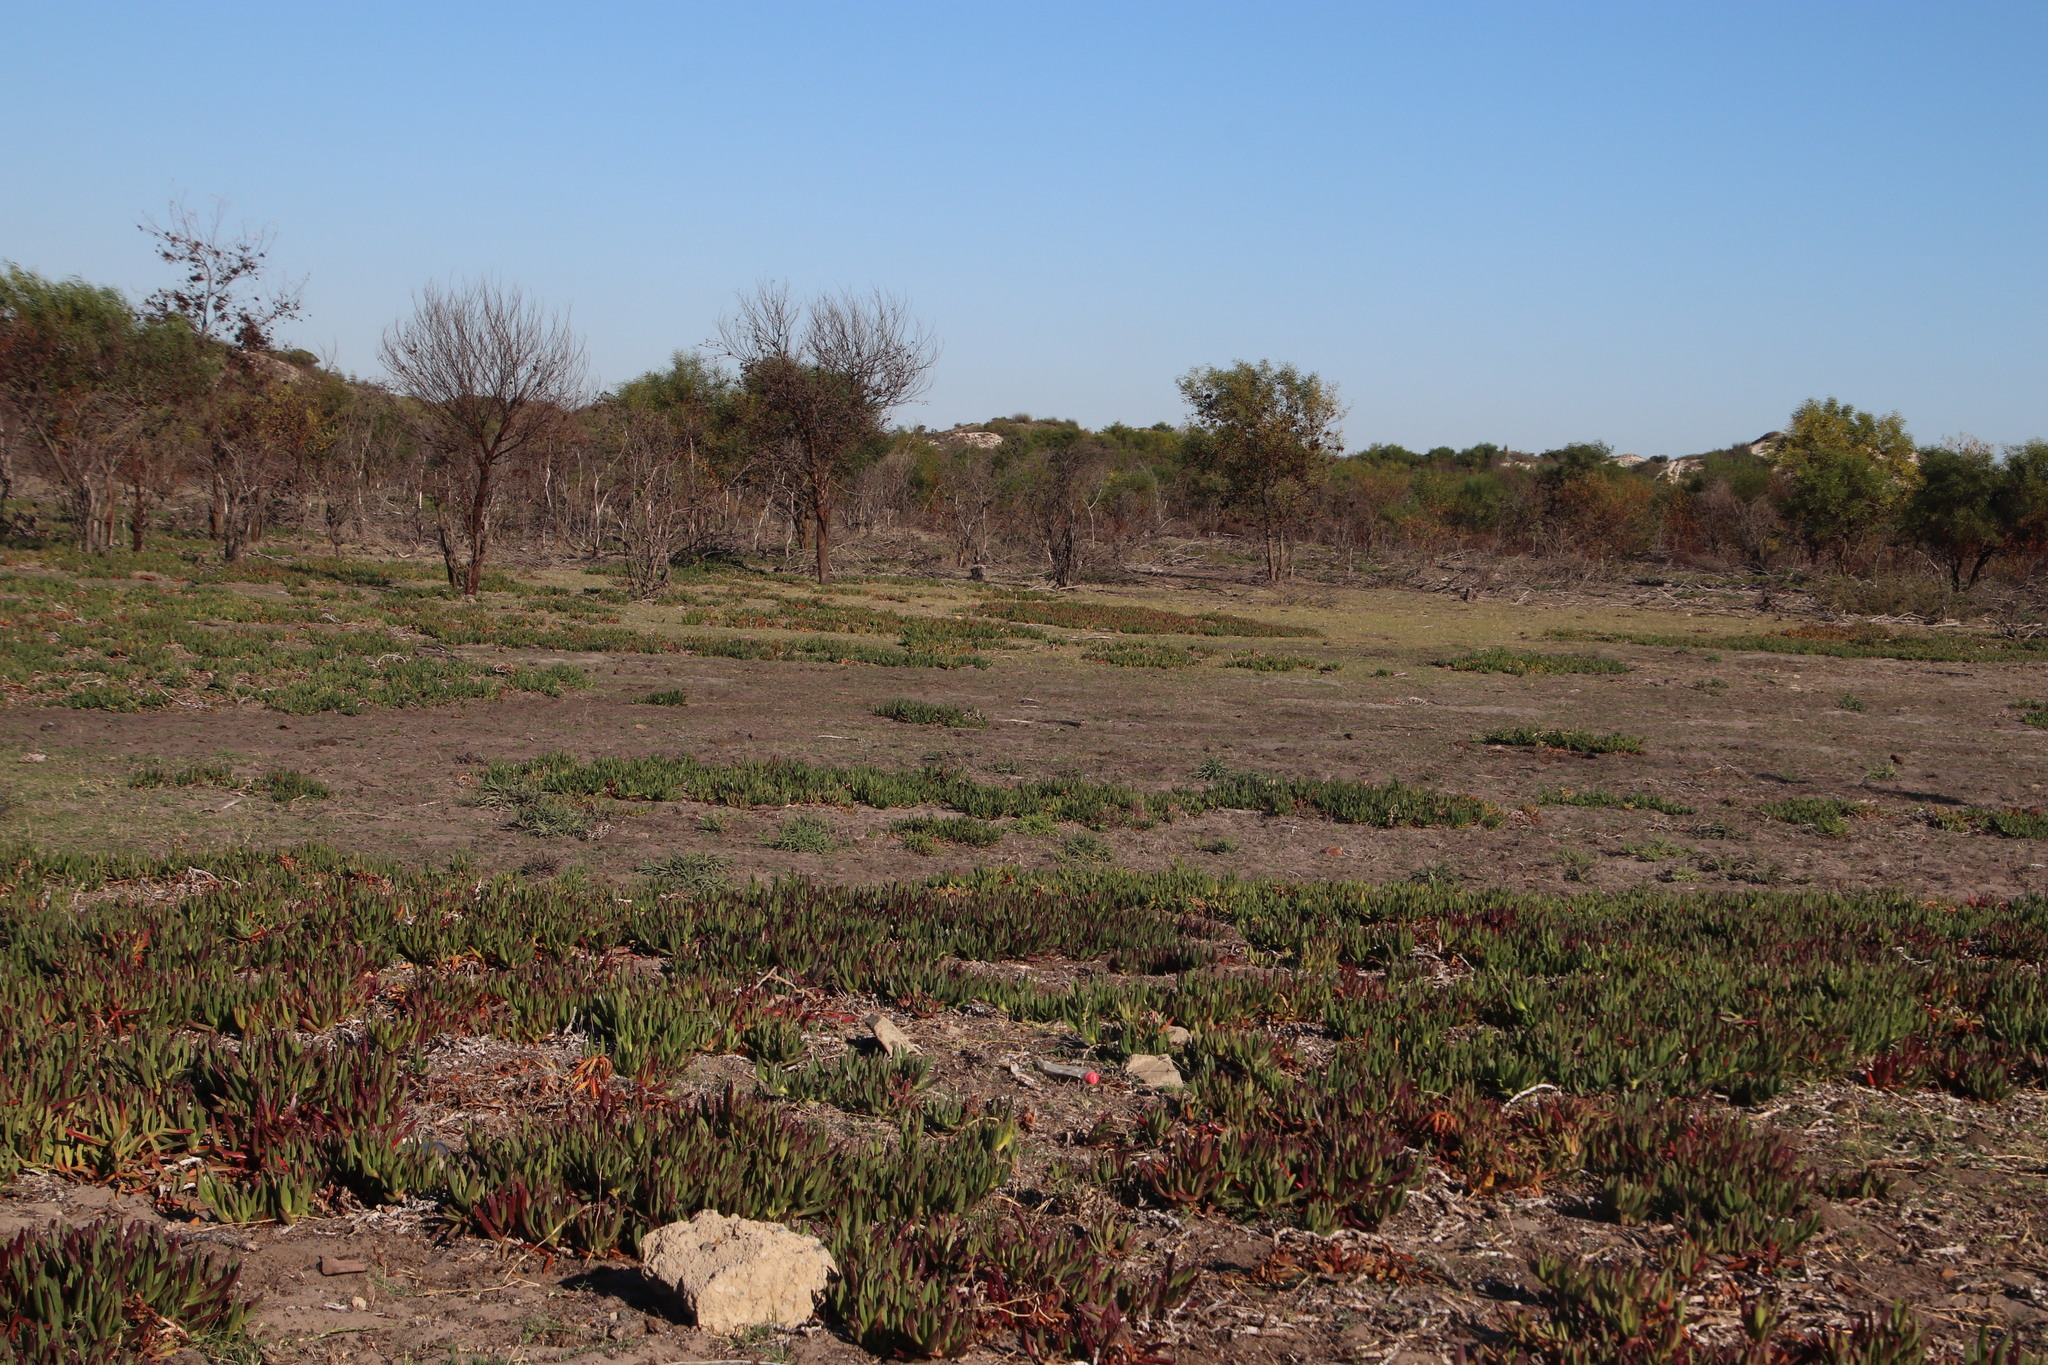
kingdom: Plantae
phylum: Tracheophyta
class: Magnoliopsida
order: Caryophyllales
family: Aizoaceae
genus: Carpobrotus
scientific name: Carpobrotus edulis
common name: Hottentot-fig
